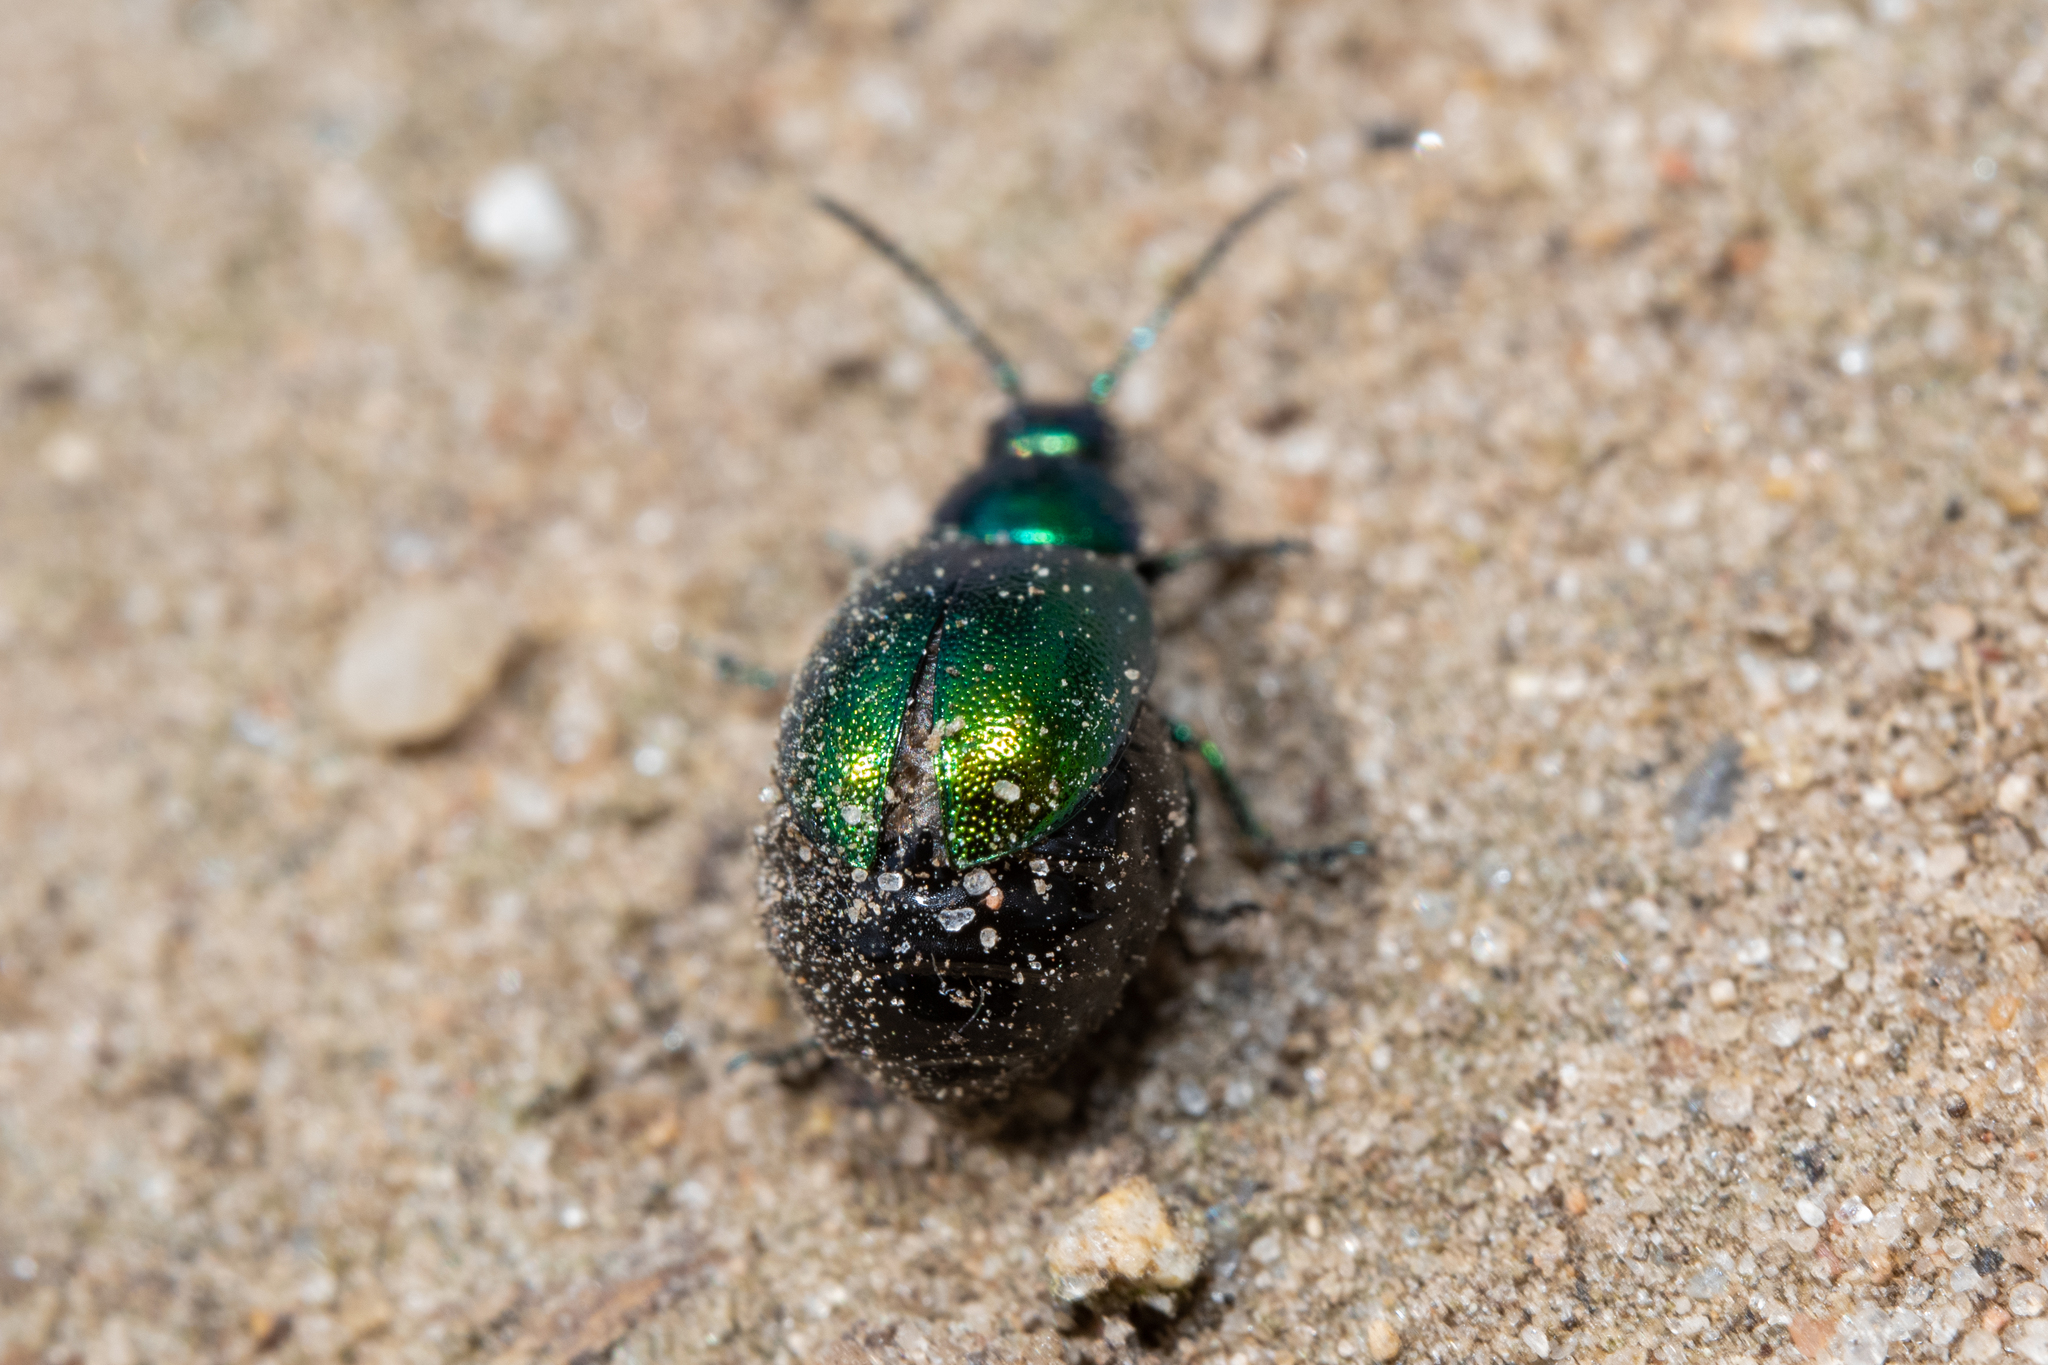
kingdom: Animalia
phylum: Arthropoda
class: Insecta
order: Coleoptera
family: Chrysomelidae
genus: Gastrophysa
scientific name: Gastrophysa viridula
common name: Green dock beetle
